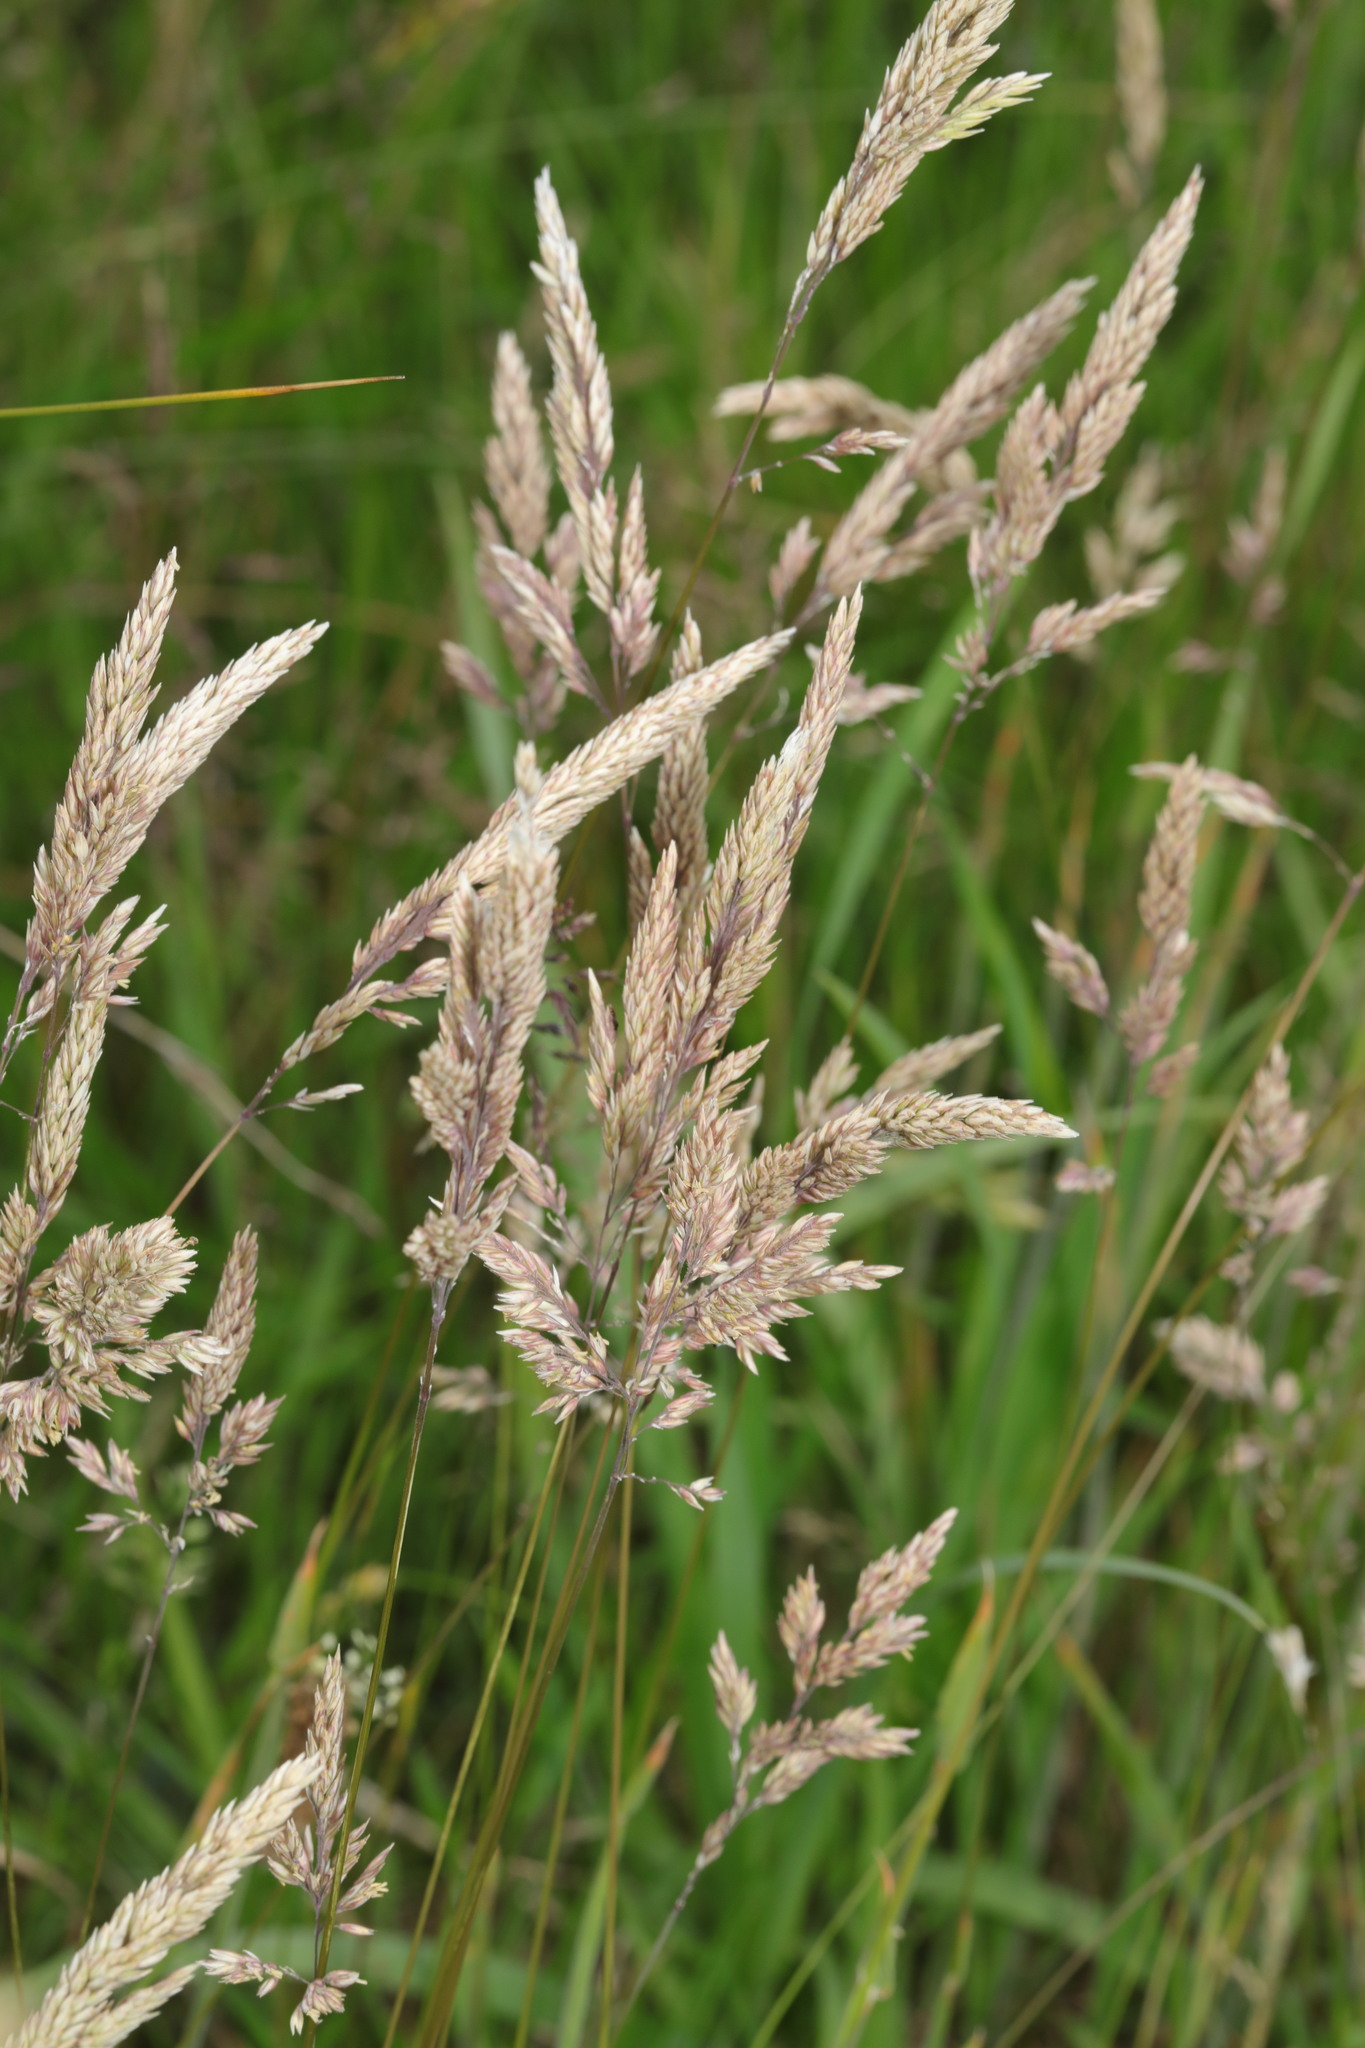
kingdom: Plantae
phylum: Tracheophyta
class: Liliopsida
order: Poales
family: Poaceae
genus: Holcus
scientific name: Holcus lanatus
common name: Yorkshire-fog
